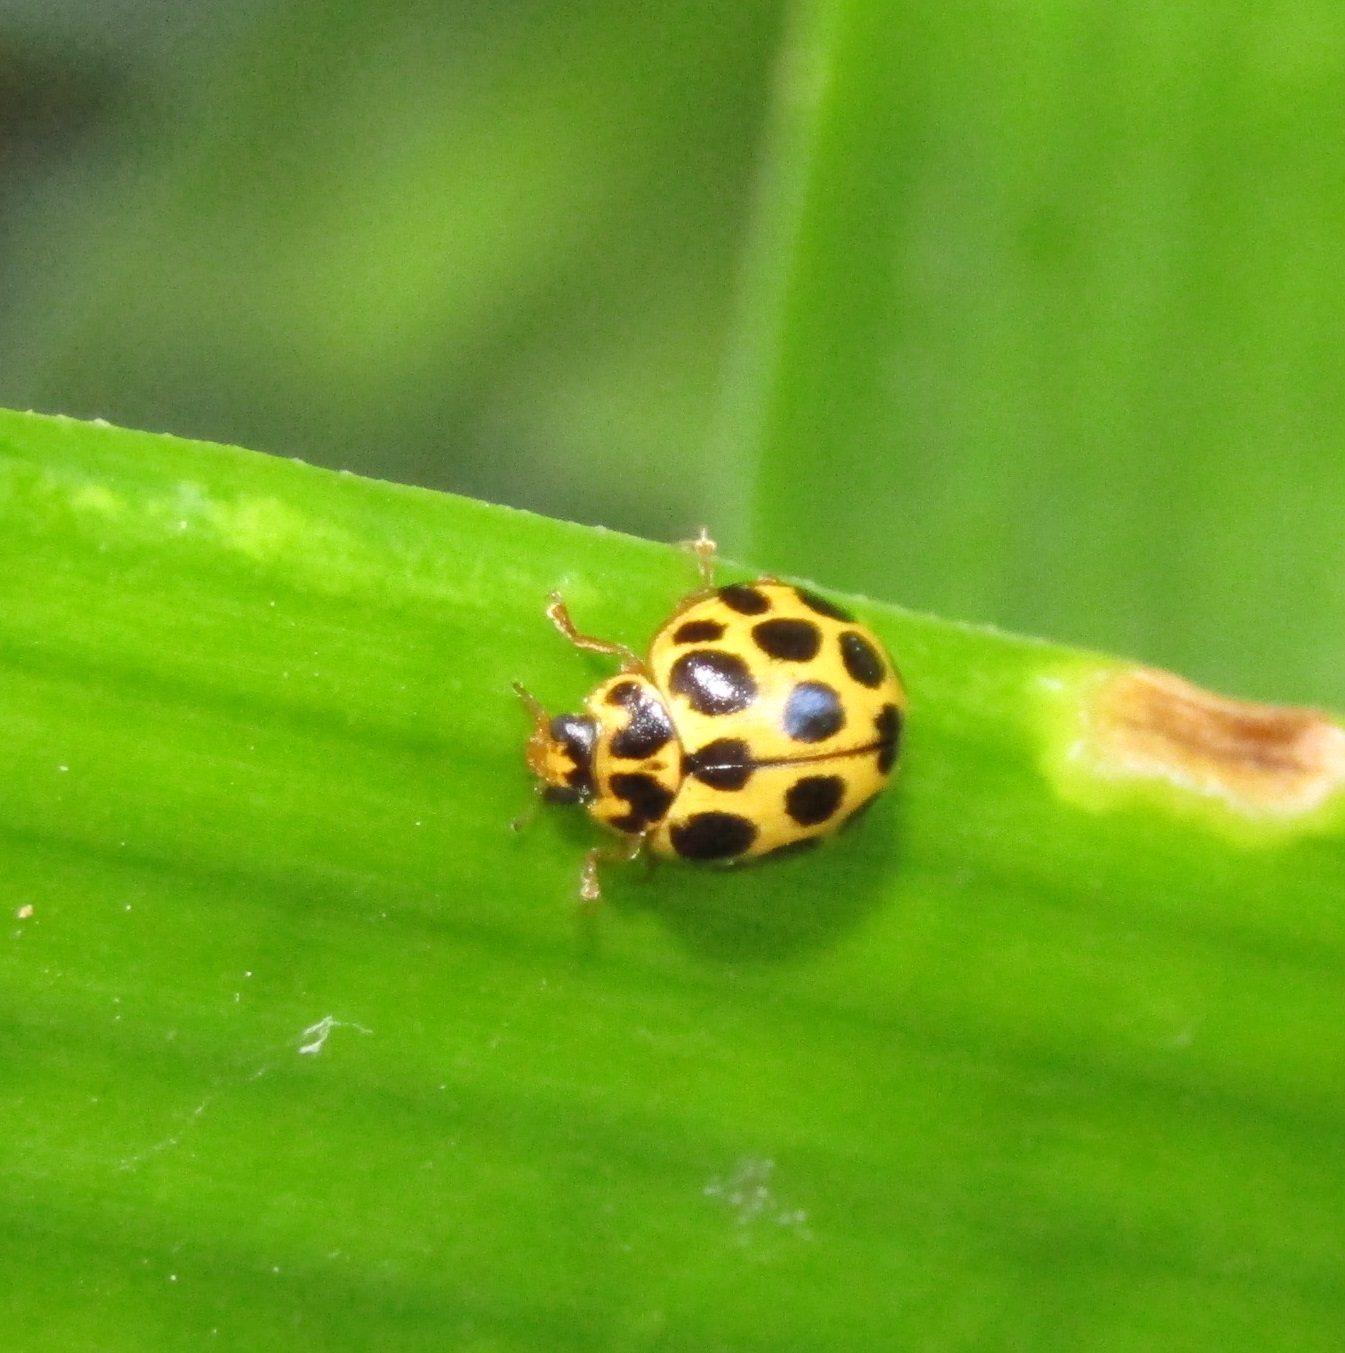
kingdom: Animalia
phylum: Arthropoda
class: Insecta
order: Coleoptera
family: Coccinellidae
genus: Harmonia
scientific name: Harmonia conformis
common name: Common spotted ladybird beetle
